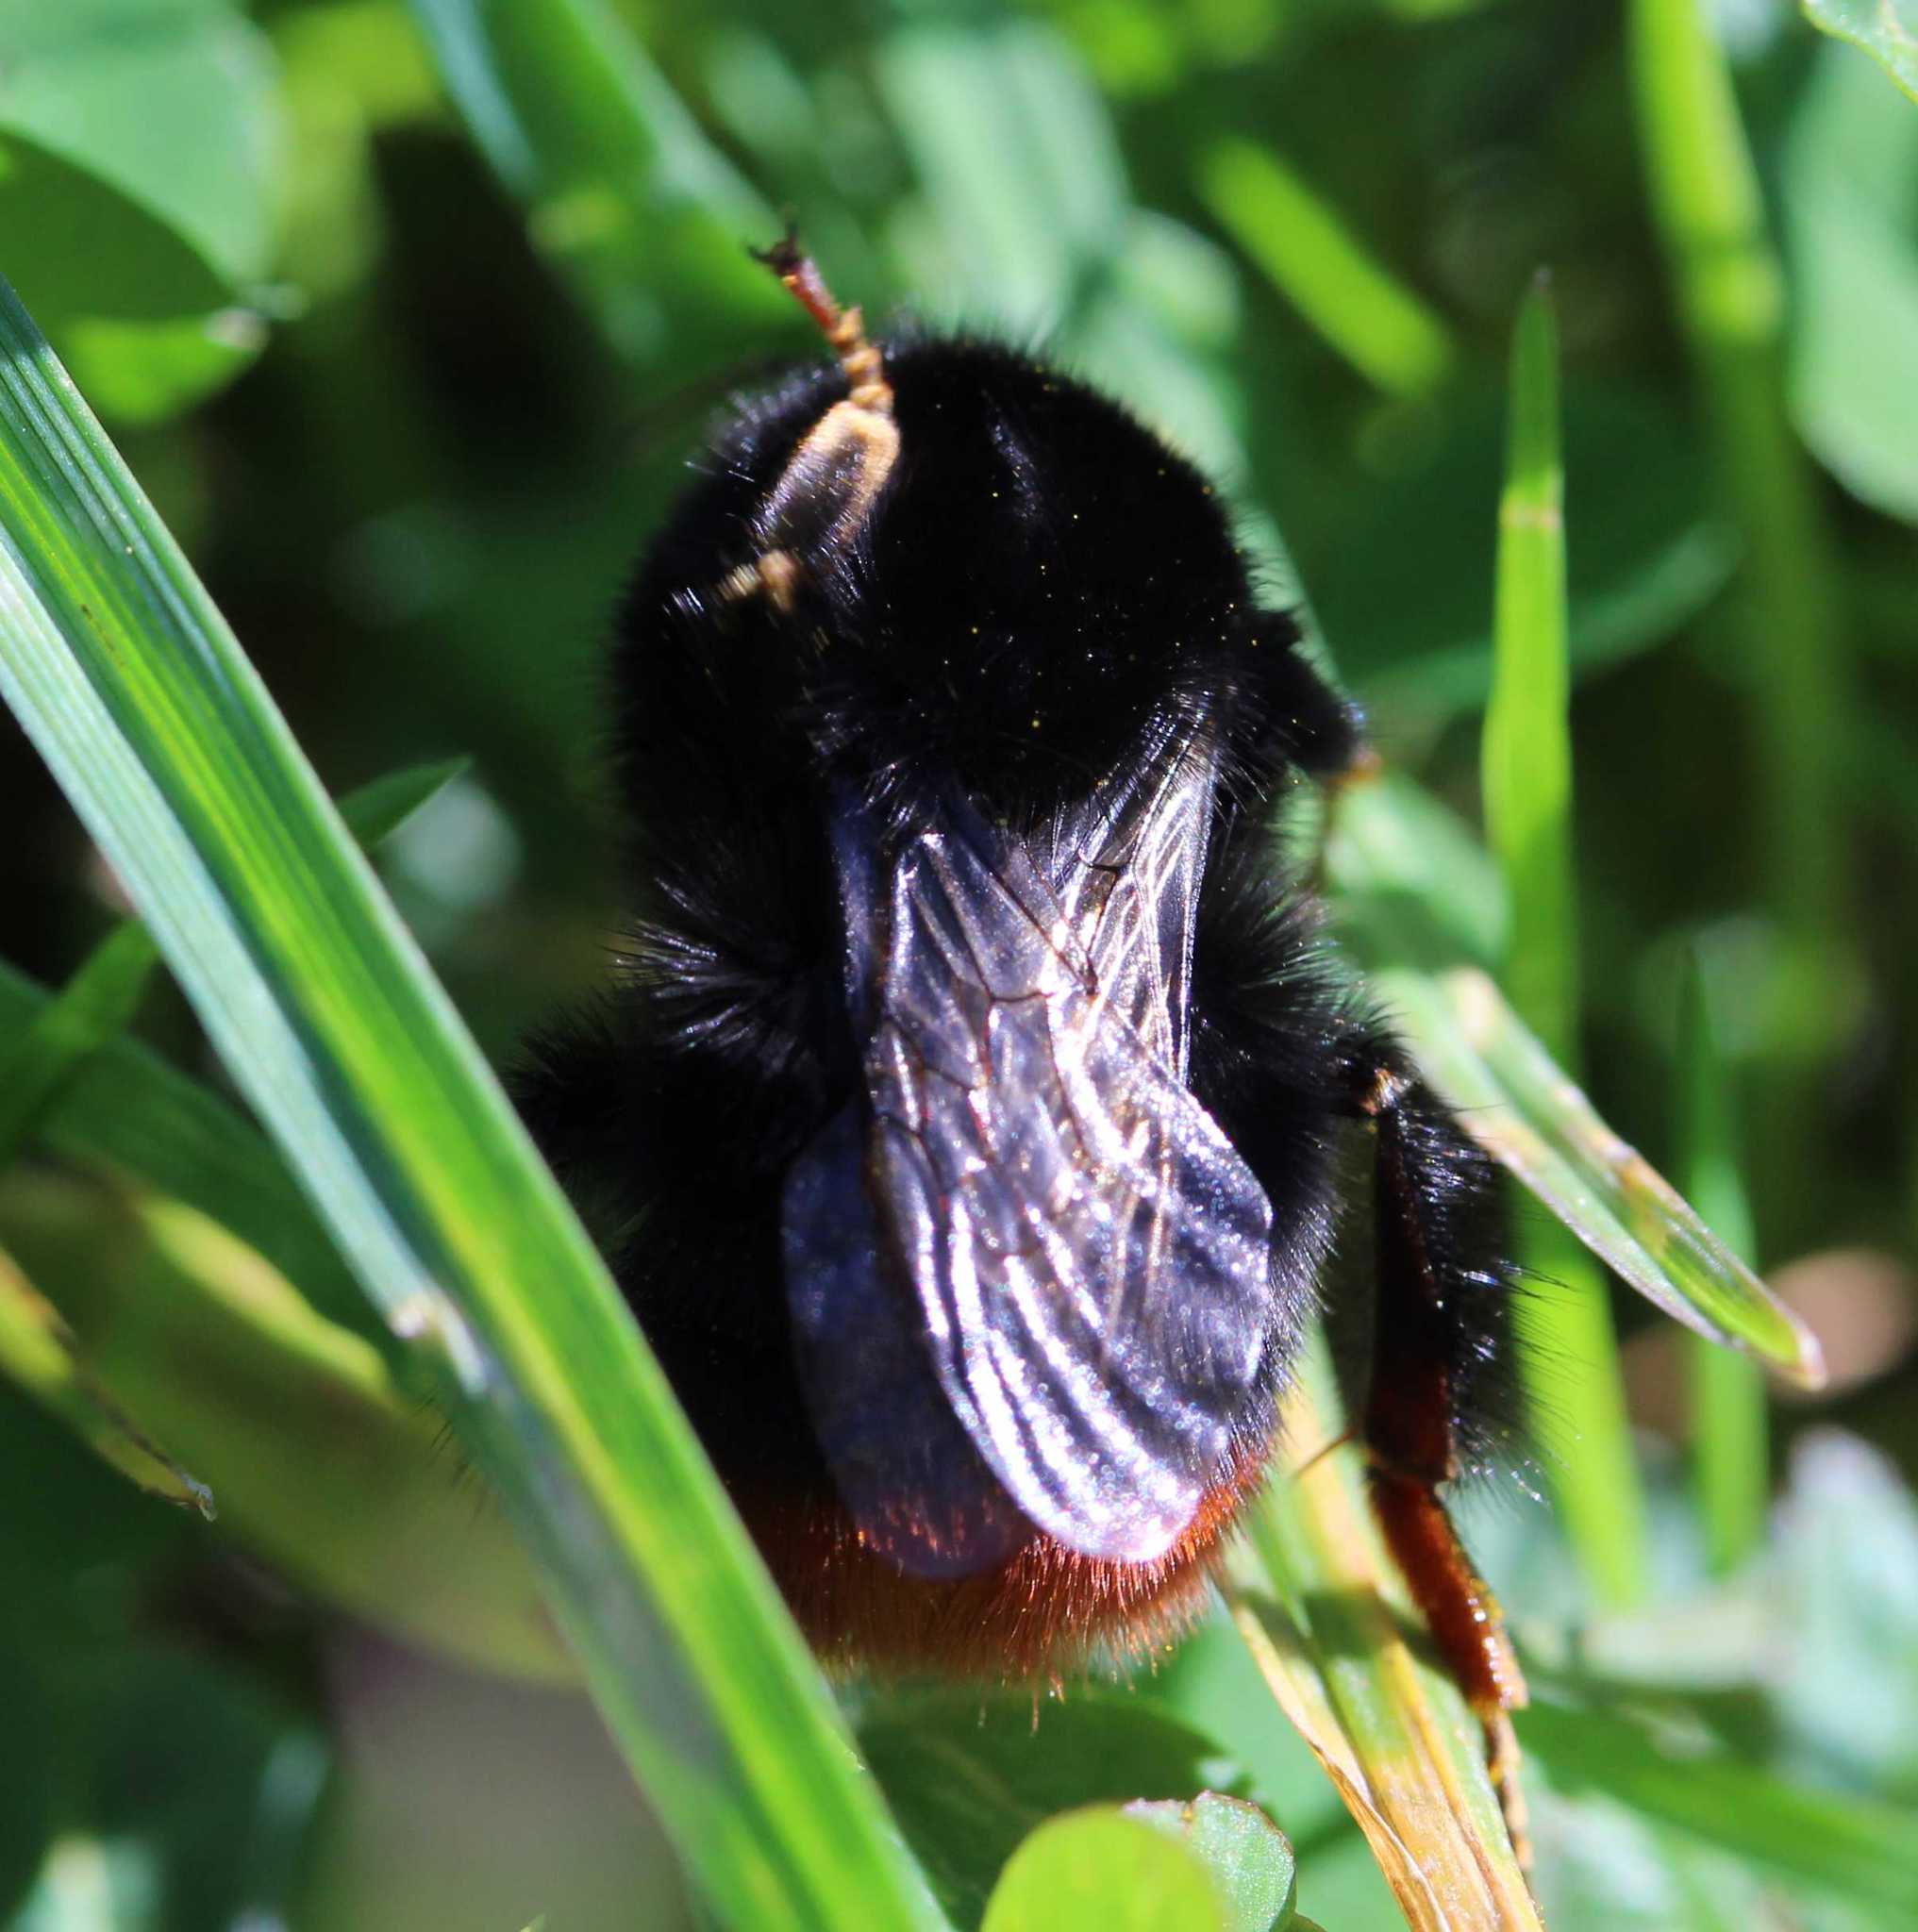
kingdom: Animalia
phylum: Arthropoda
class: Insecta
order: Hymenoptera
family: Apidae
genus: Bombus
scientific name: Bombus lapidarius
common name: Large red-tailed humble-bee
